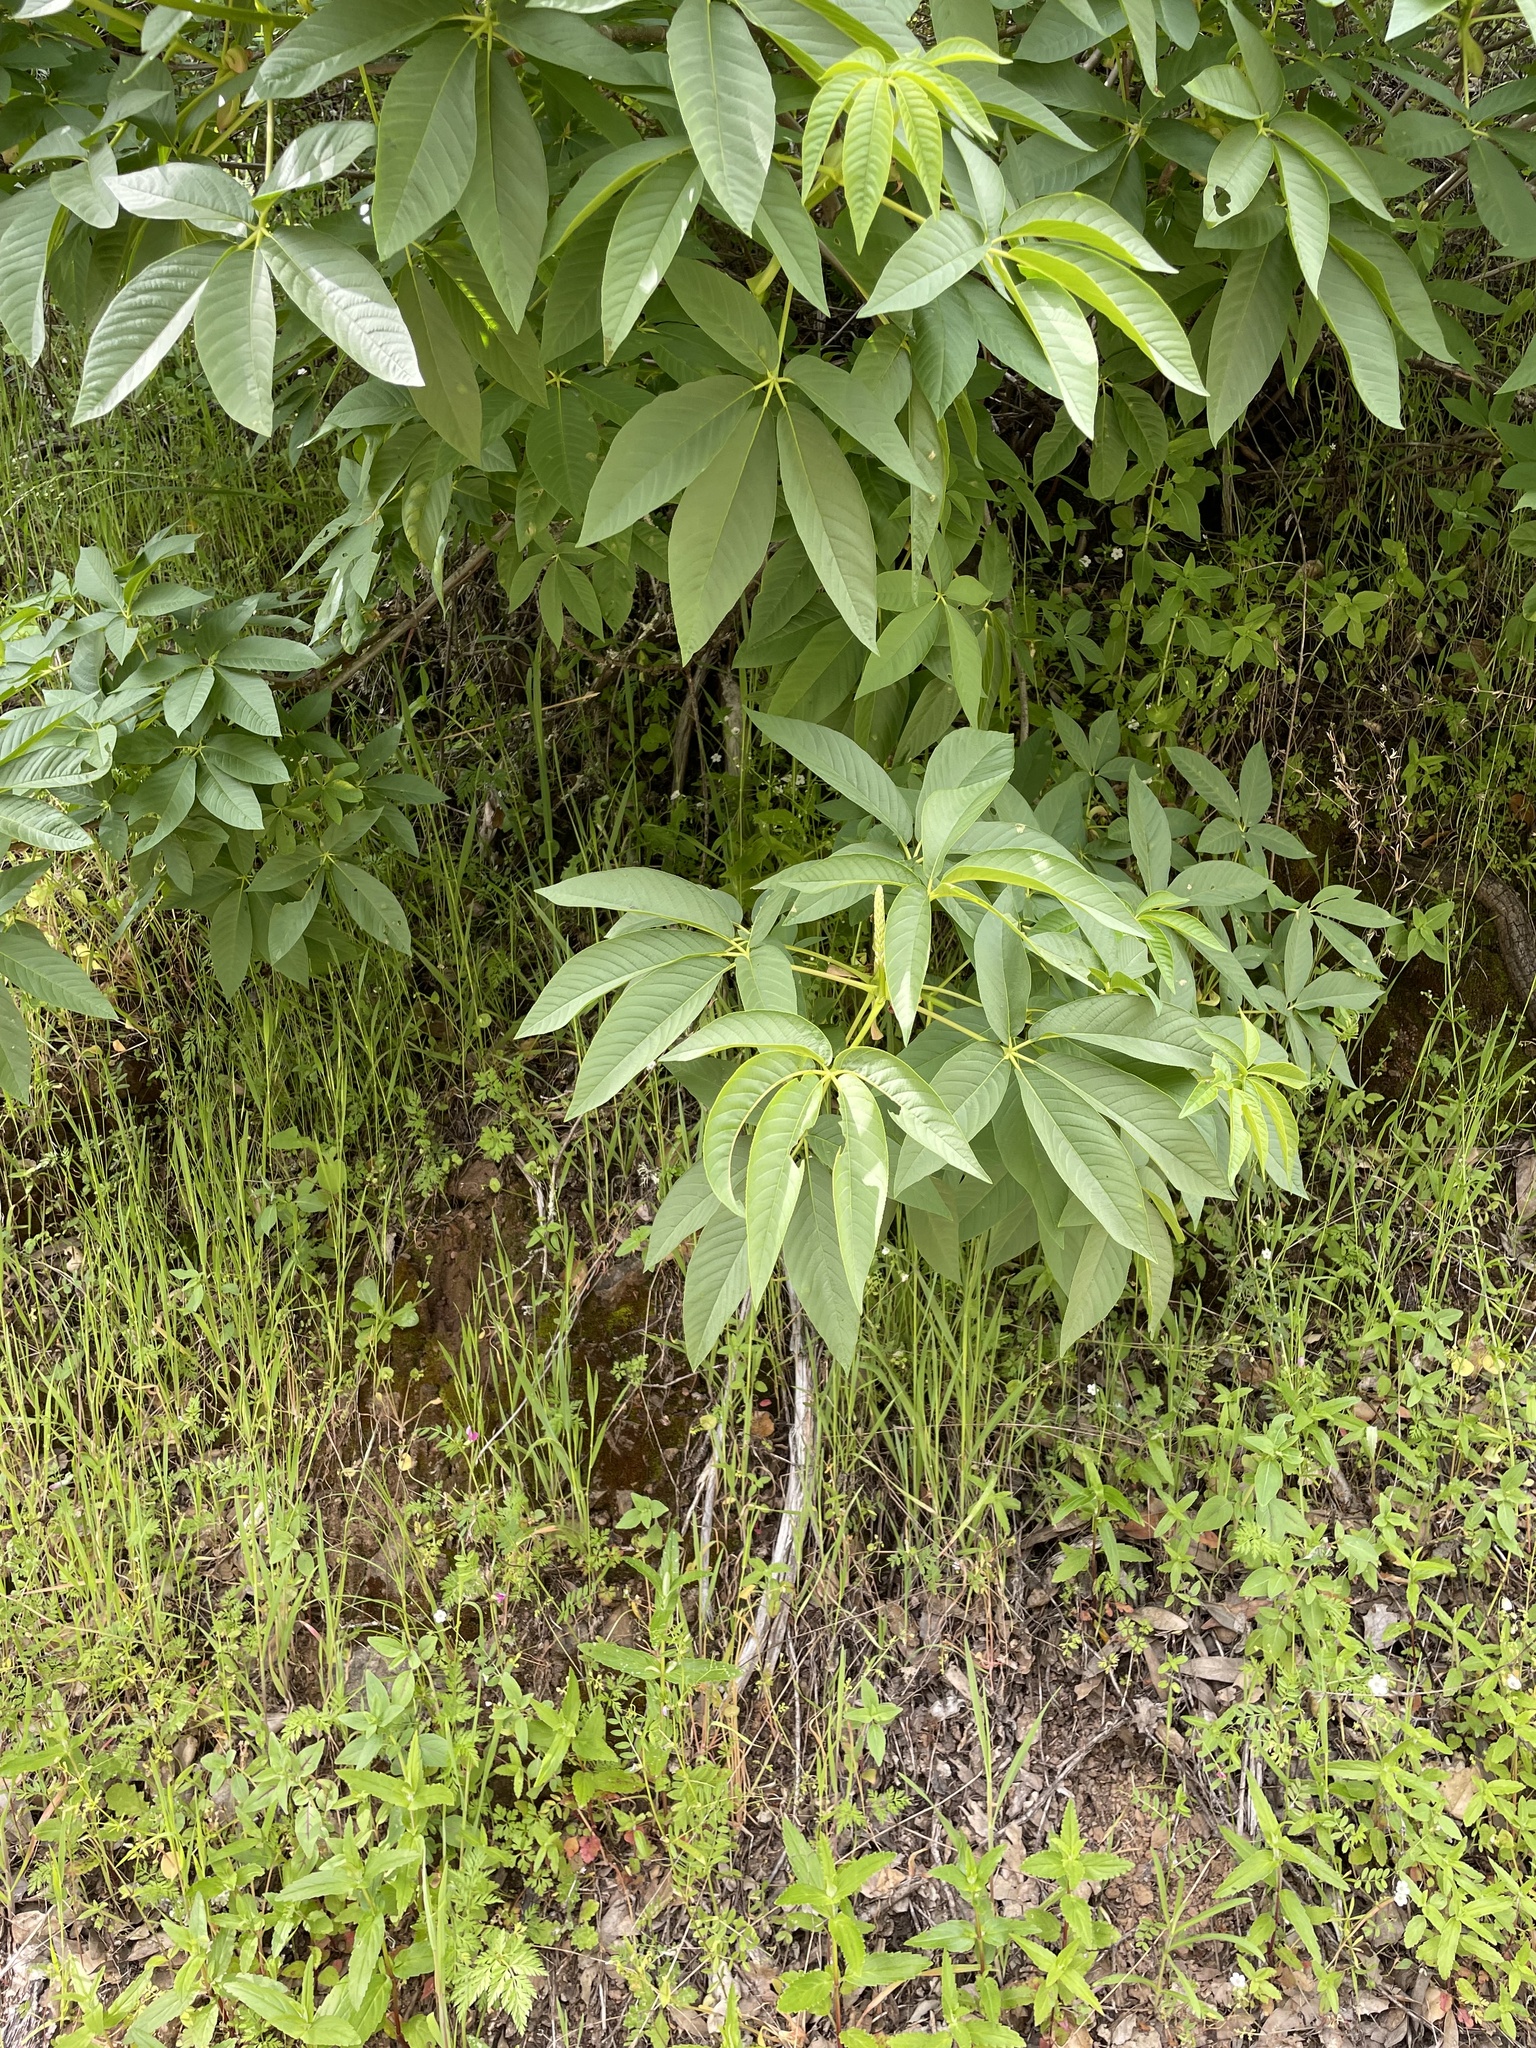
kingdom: Plantae
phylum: Tracheophyta
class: Magnoliopsida
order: Sapindales
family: Sapindaceae
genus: Aesculus
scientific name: Aesculus californica
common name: California buckeye
